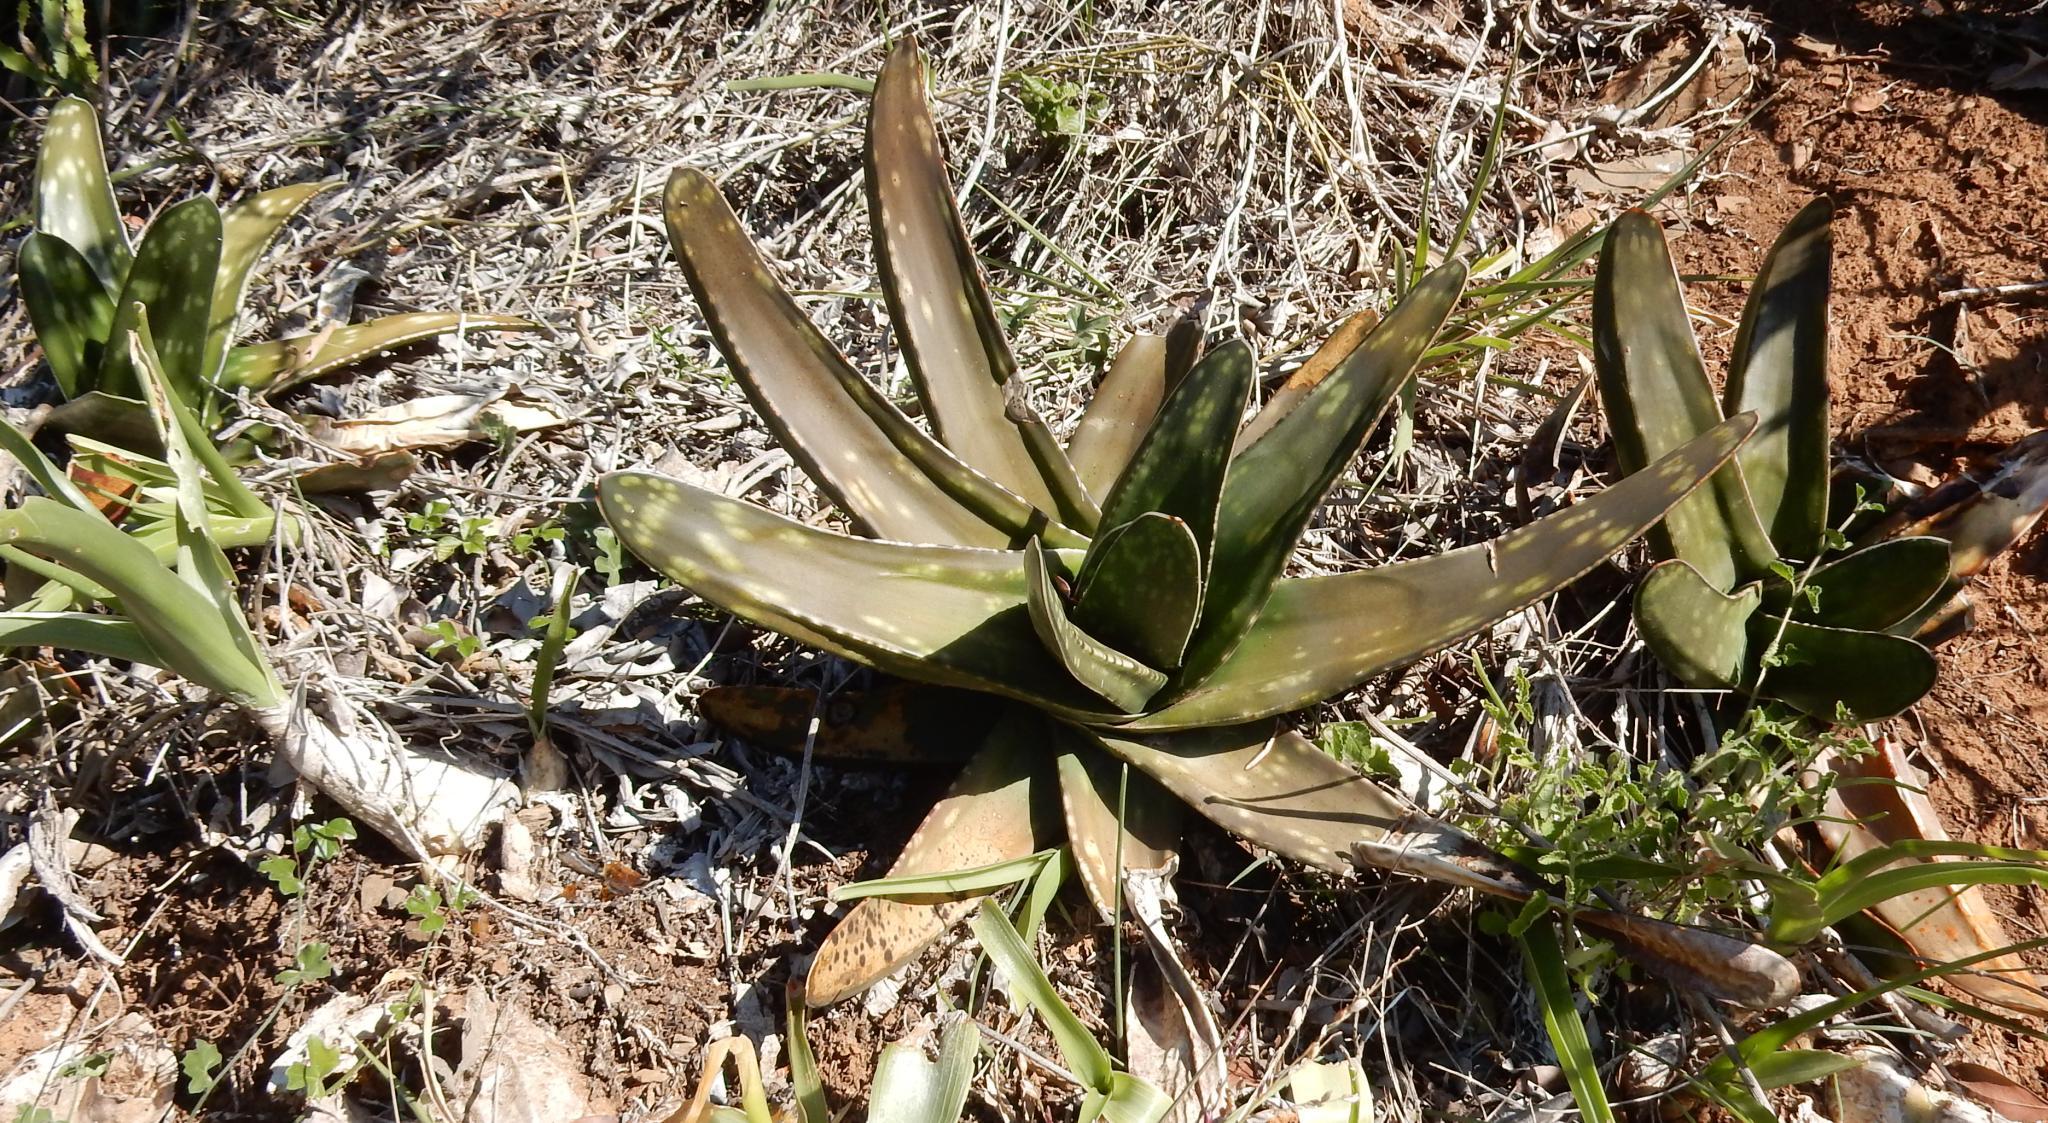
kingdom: Plantae
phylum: Tracheophyta
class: Liliopsida
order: Asparagales
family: Asphodelaceae
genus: Gasteria
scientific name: Gasteria excelsa
